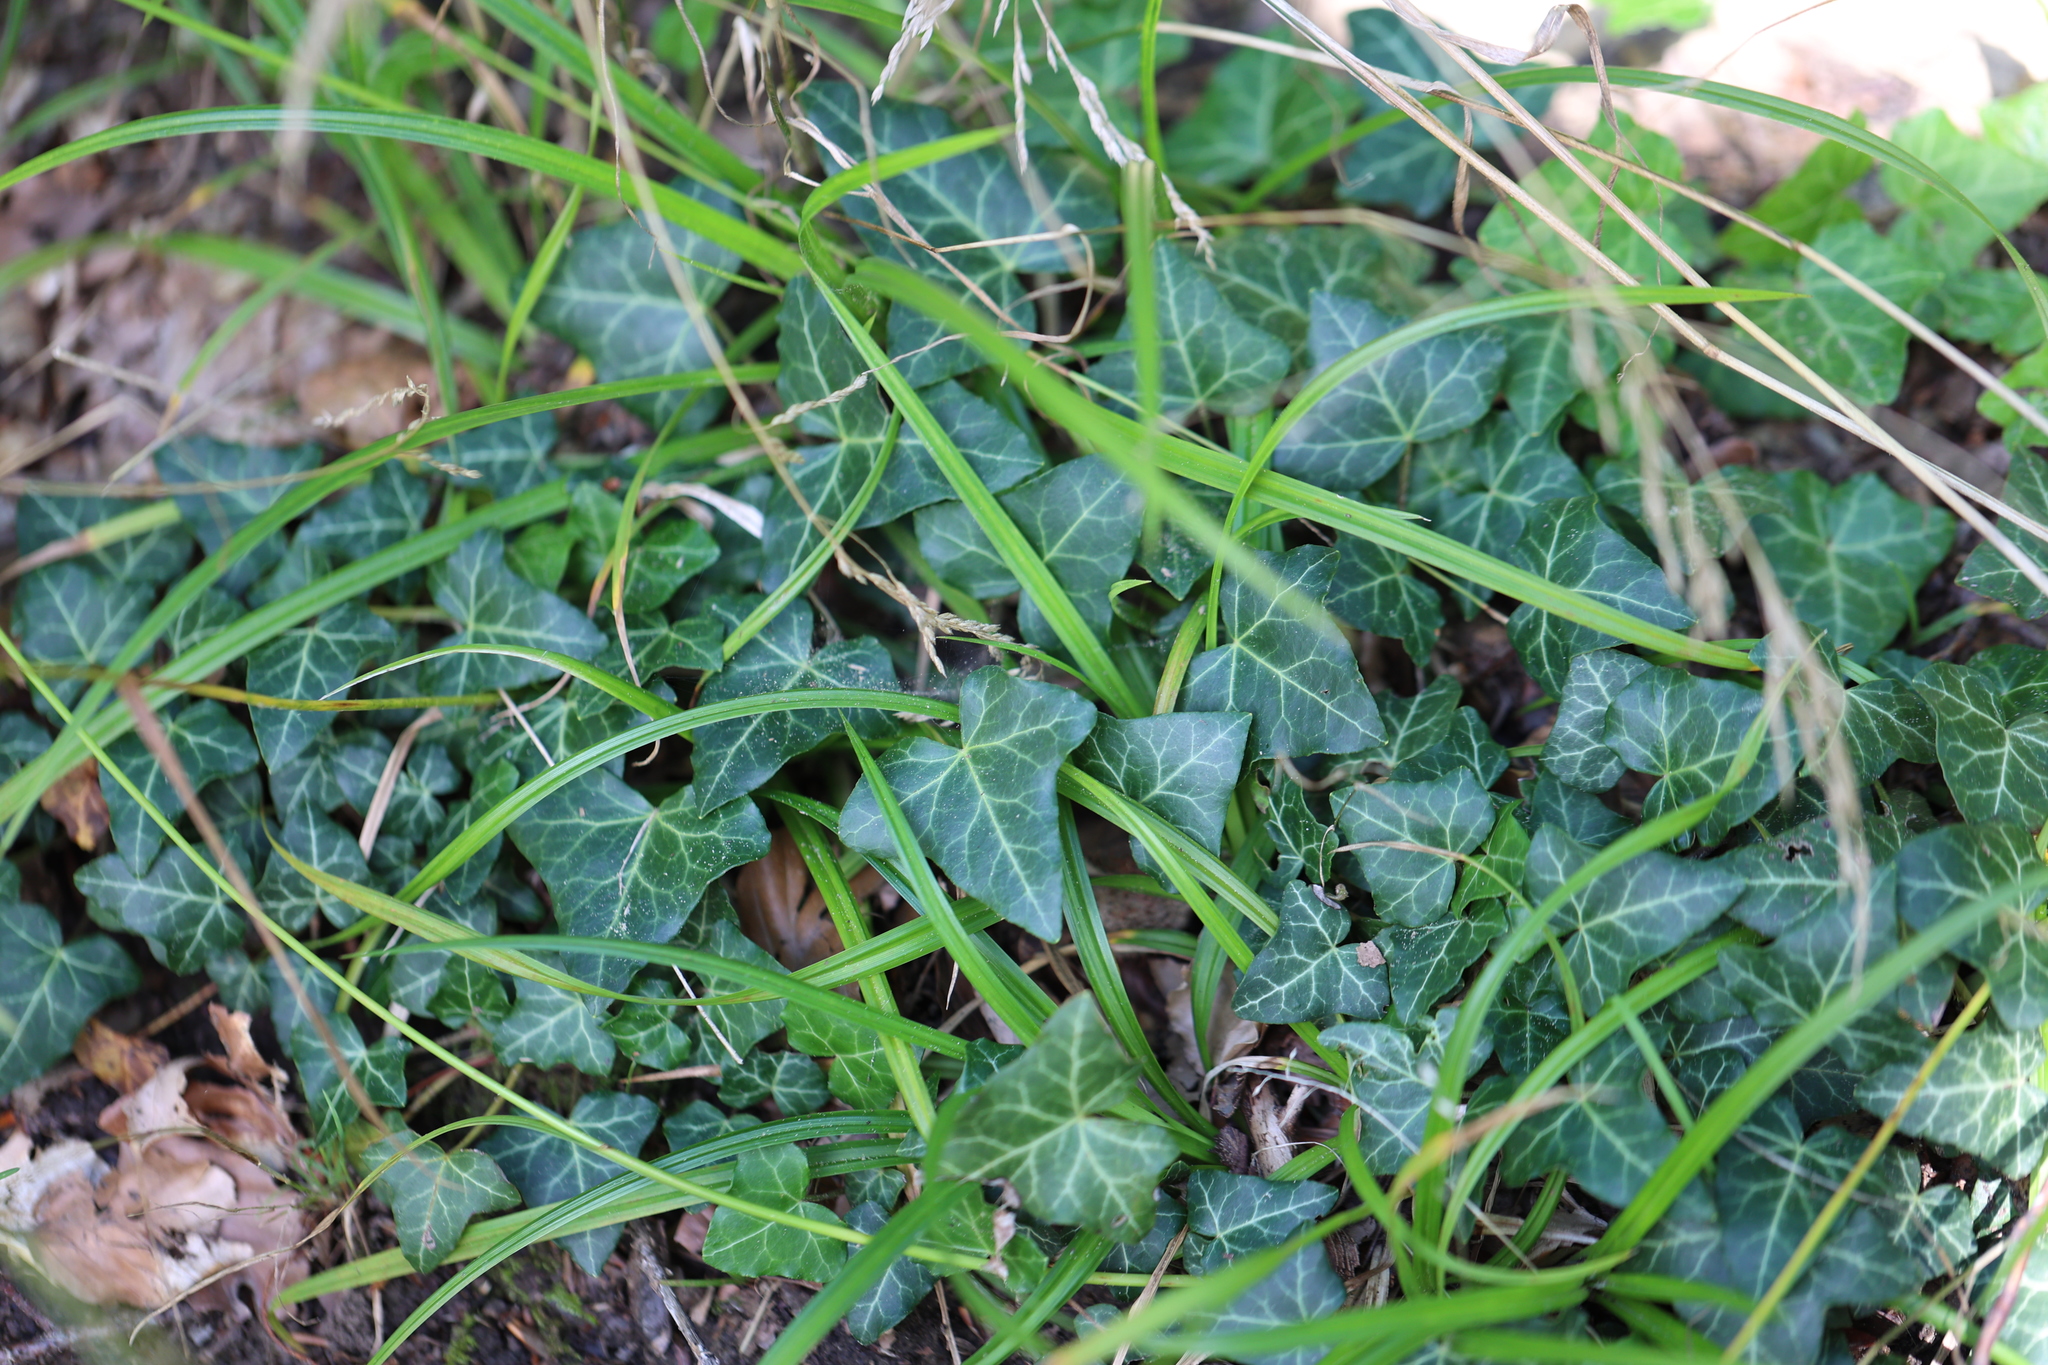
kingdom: Plantae
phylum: Tracheophyta
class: Magnoliopsida
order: Apiales
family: Araliaceae
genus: Hedera
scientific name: Hedera helix
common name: Ivy
